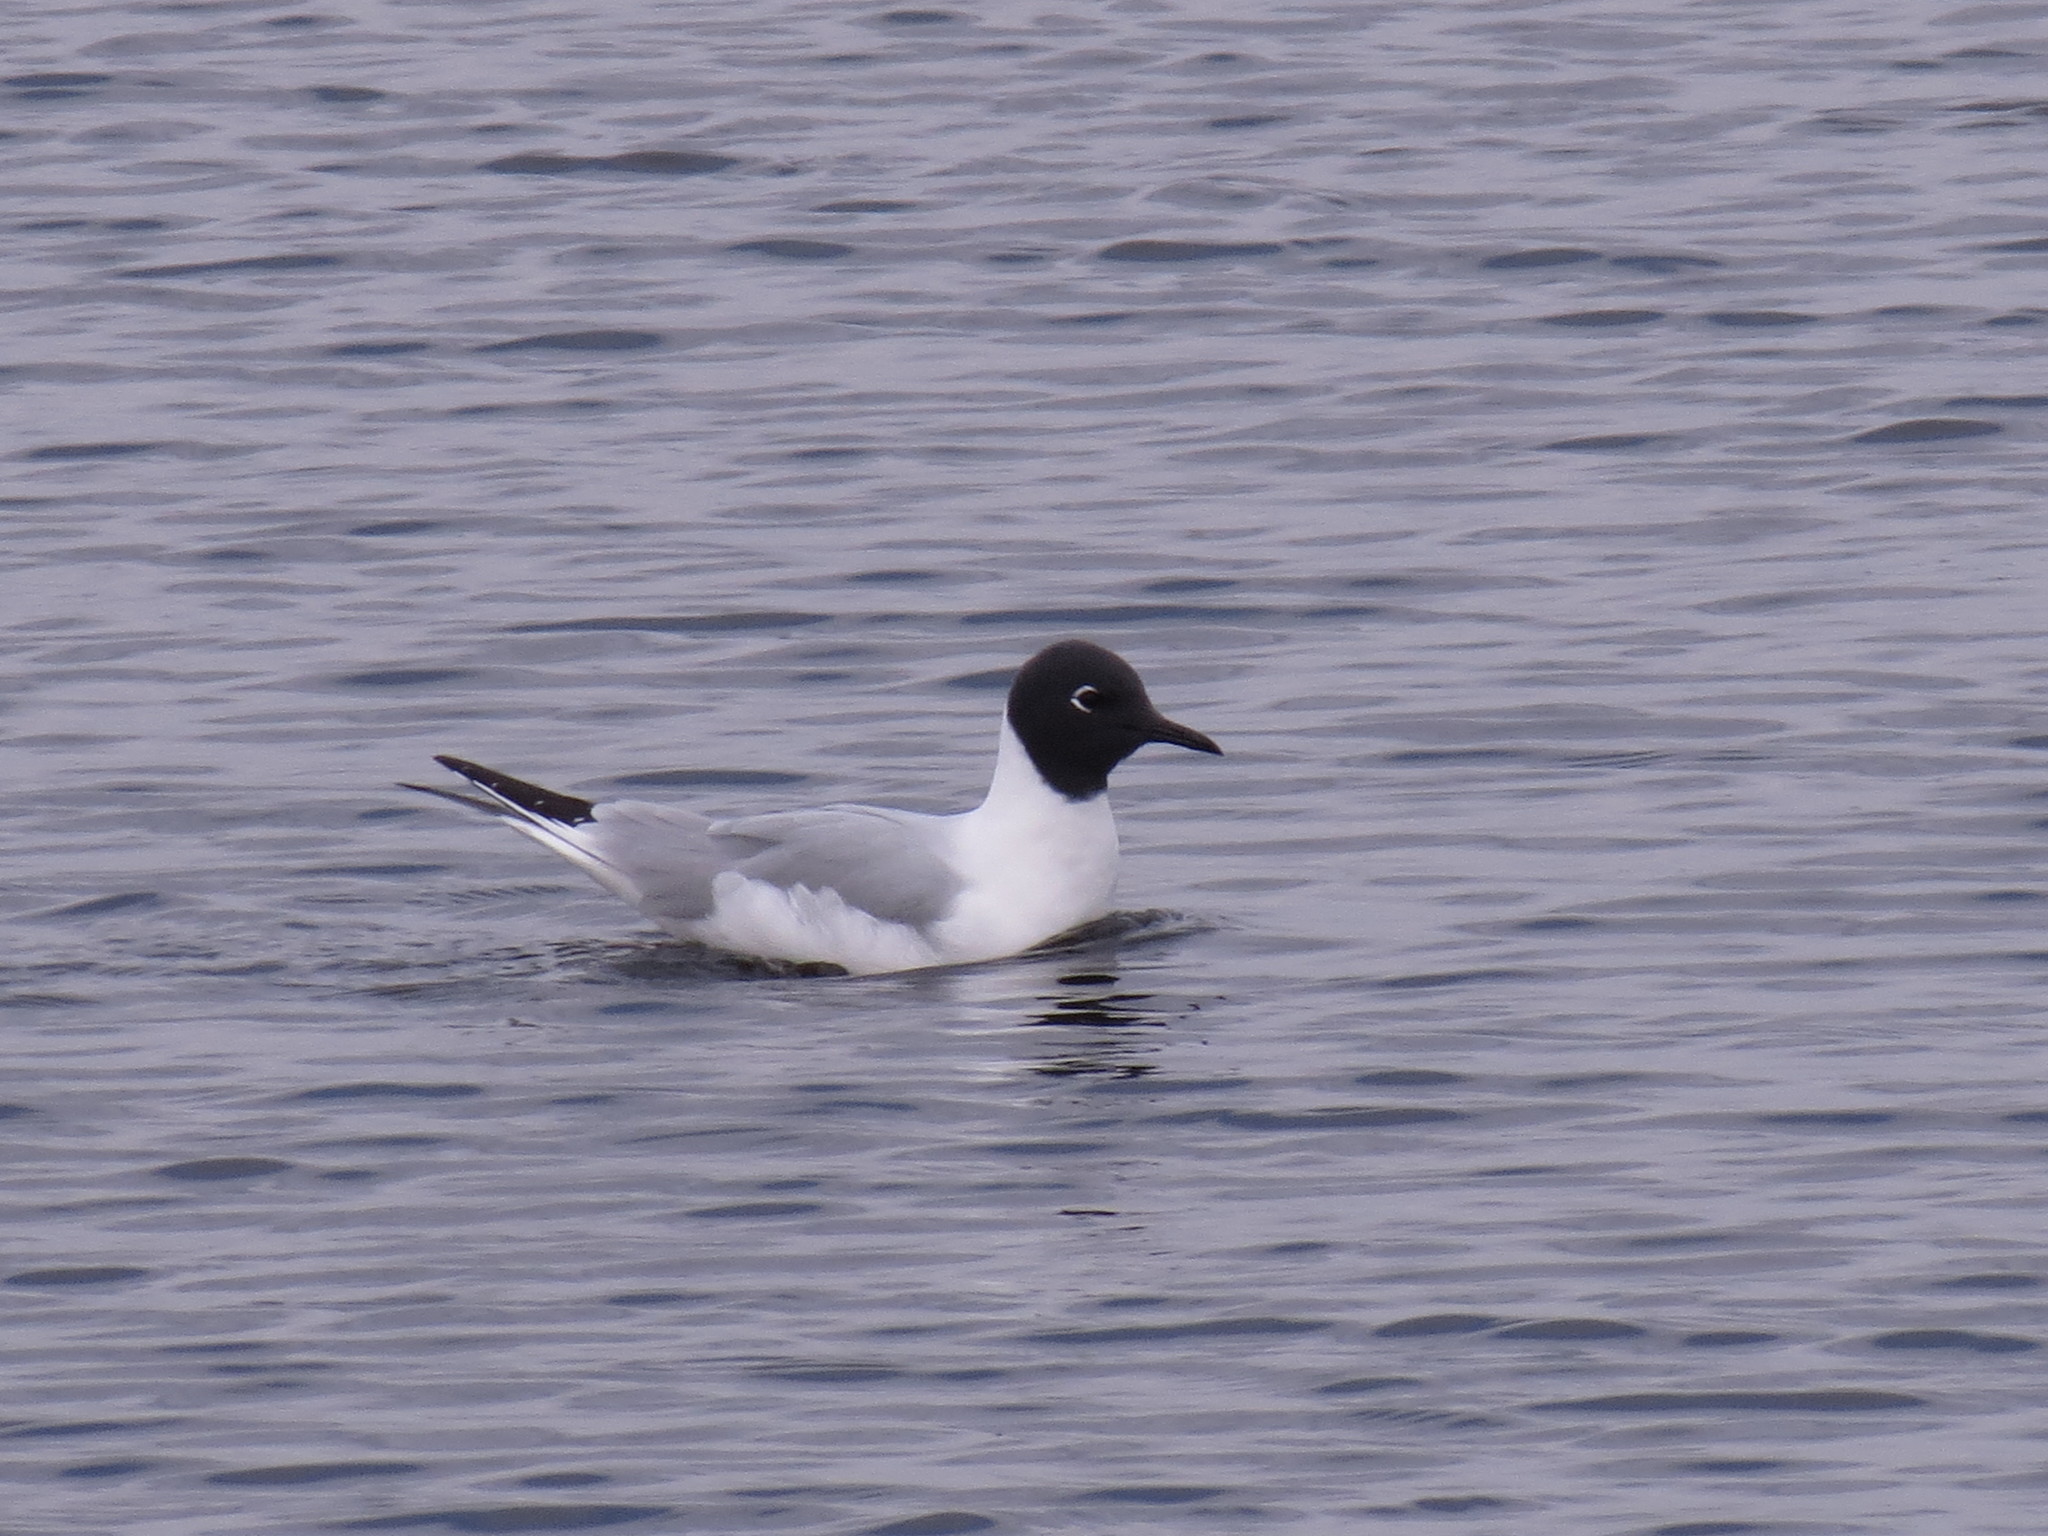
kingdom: Animalia
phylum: Chordata
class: Aves
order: Charadriiformes
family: Laridae
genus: Chroicocephalus
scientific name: Chroicocephalus philadelphia
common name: Bonaparte's gull
